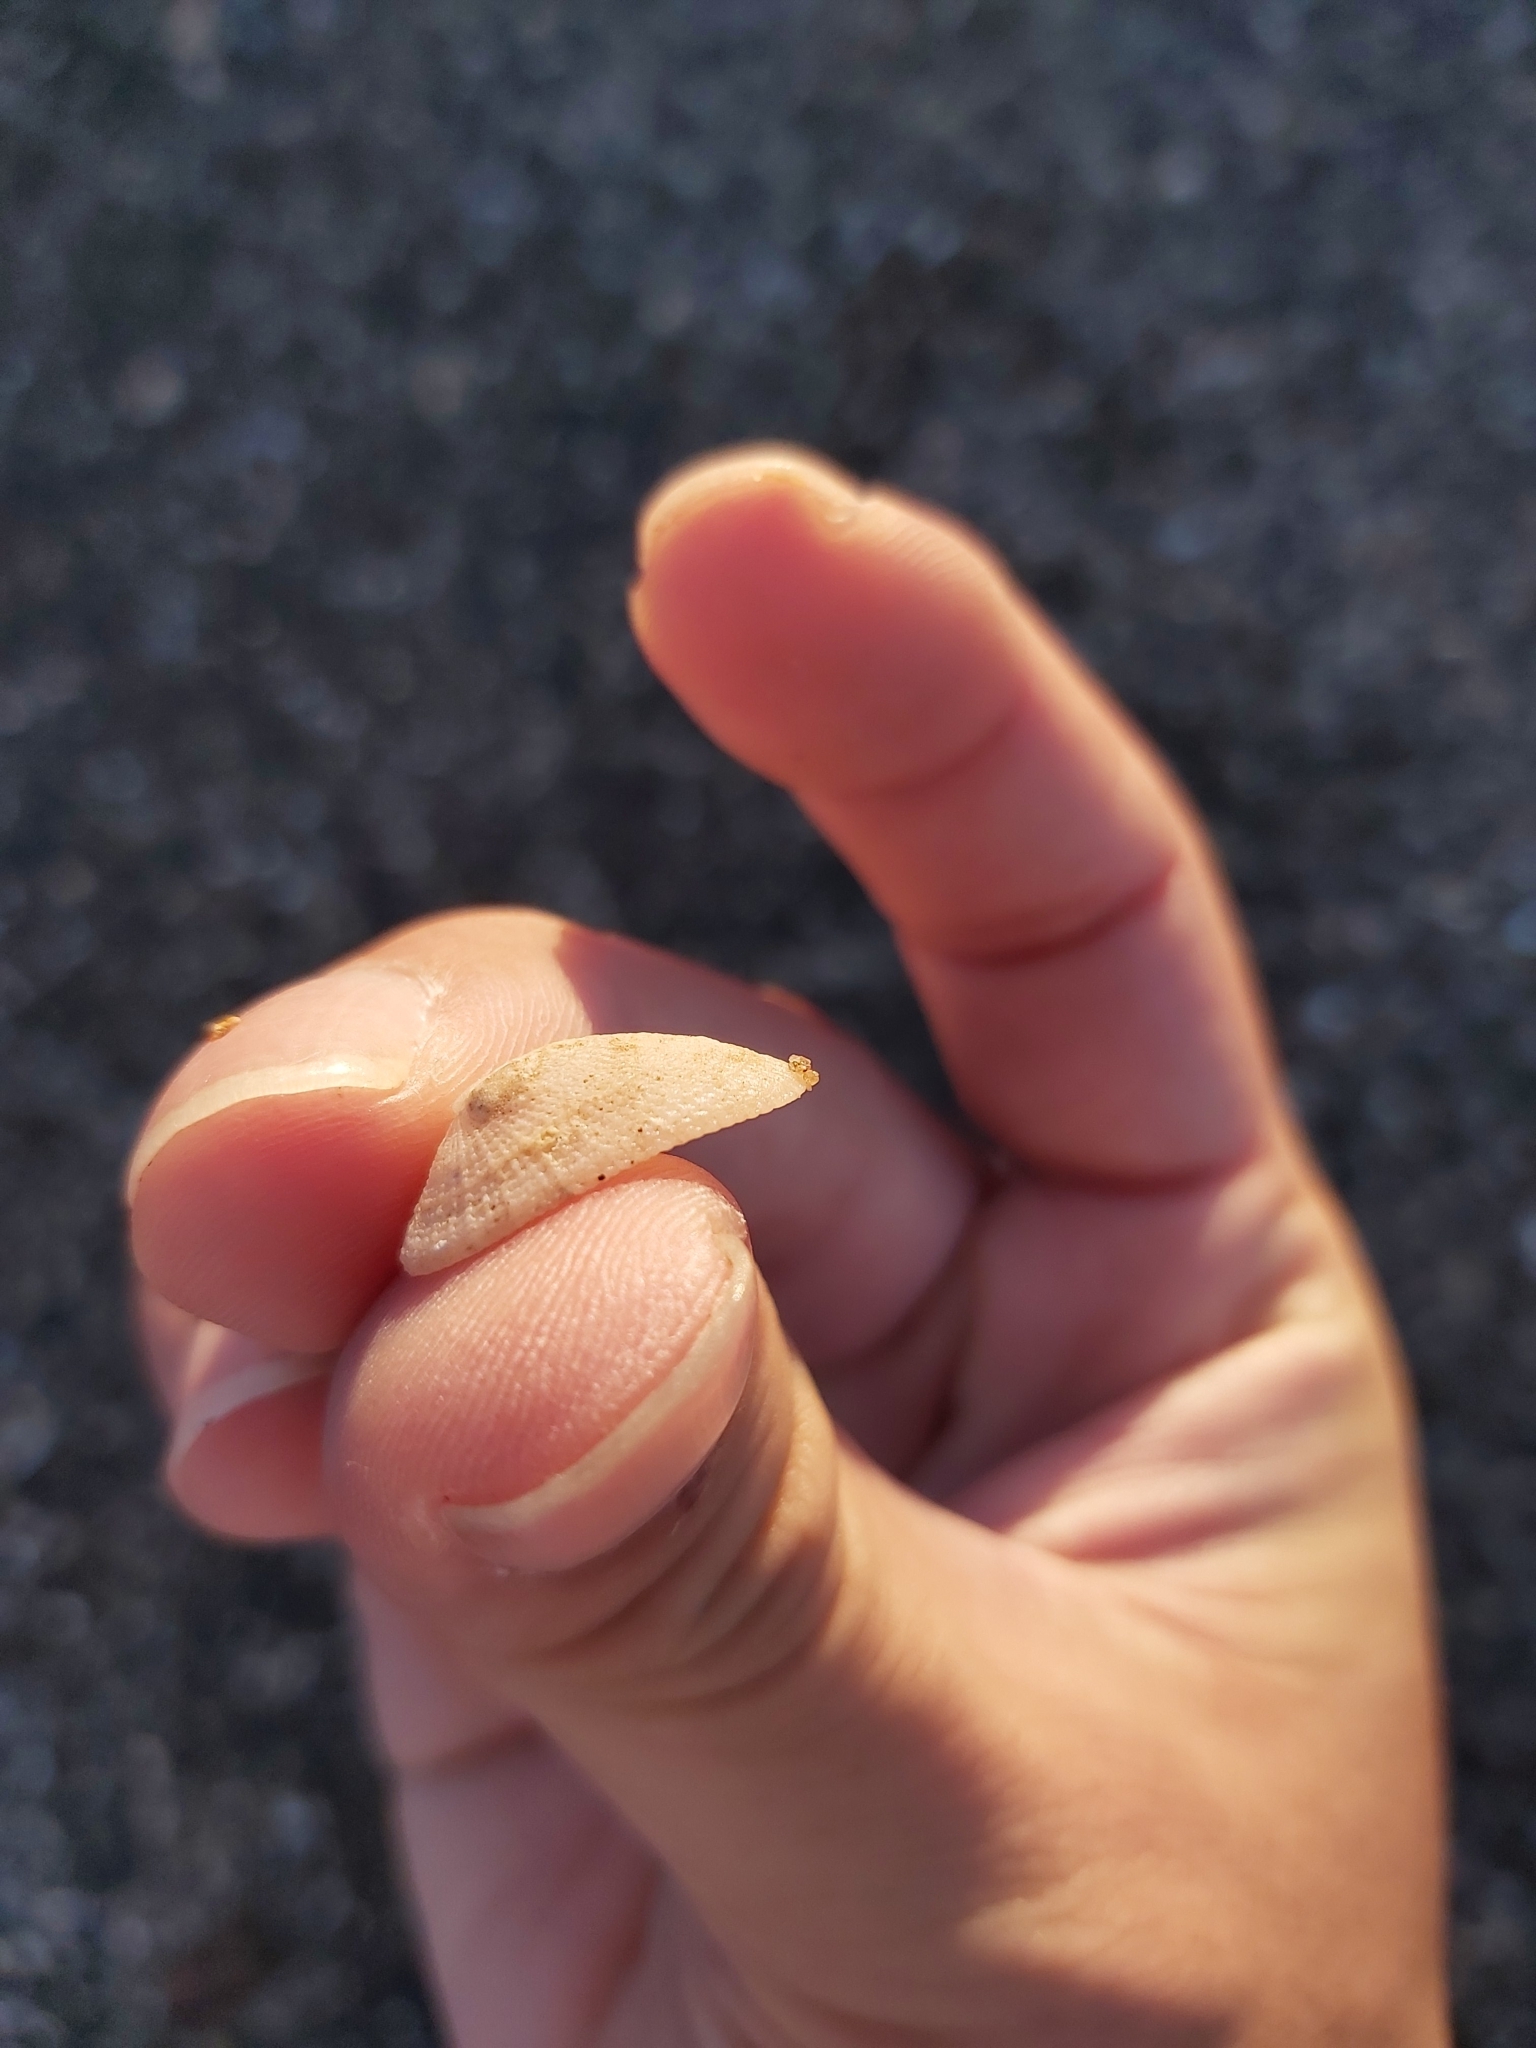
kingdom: Animalia
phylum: Mollusca
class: Gastropoda
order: Lepetellida
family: Fissurellidae
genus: Tugali
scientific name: Tugali parmophoidea
